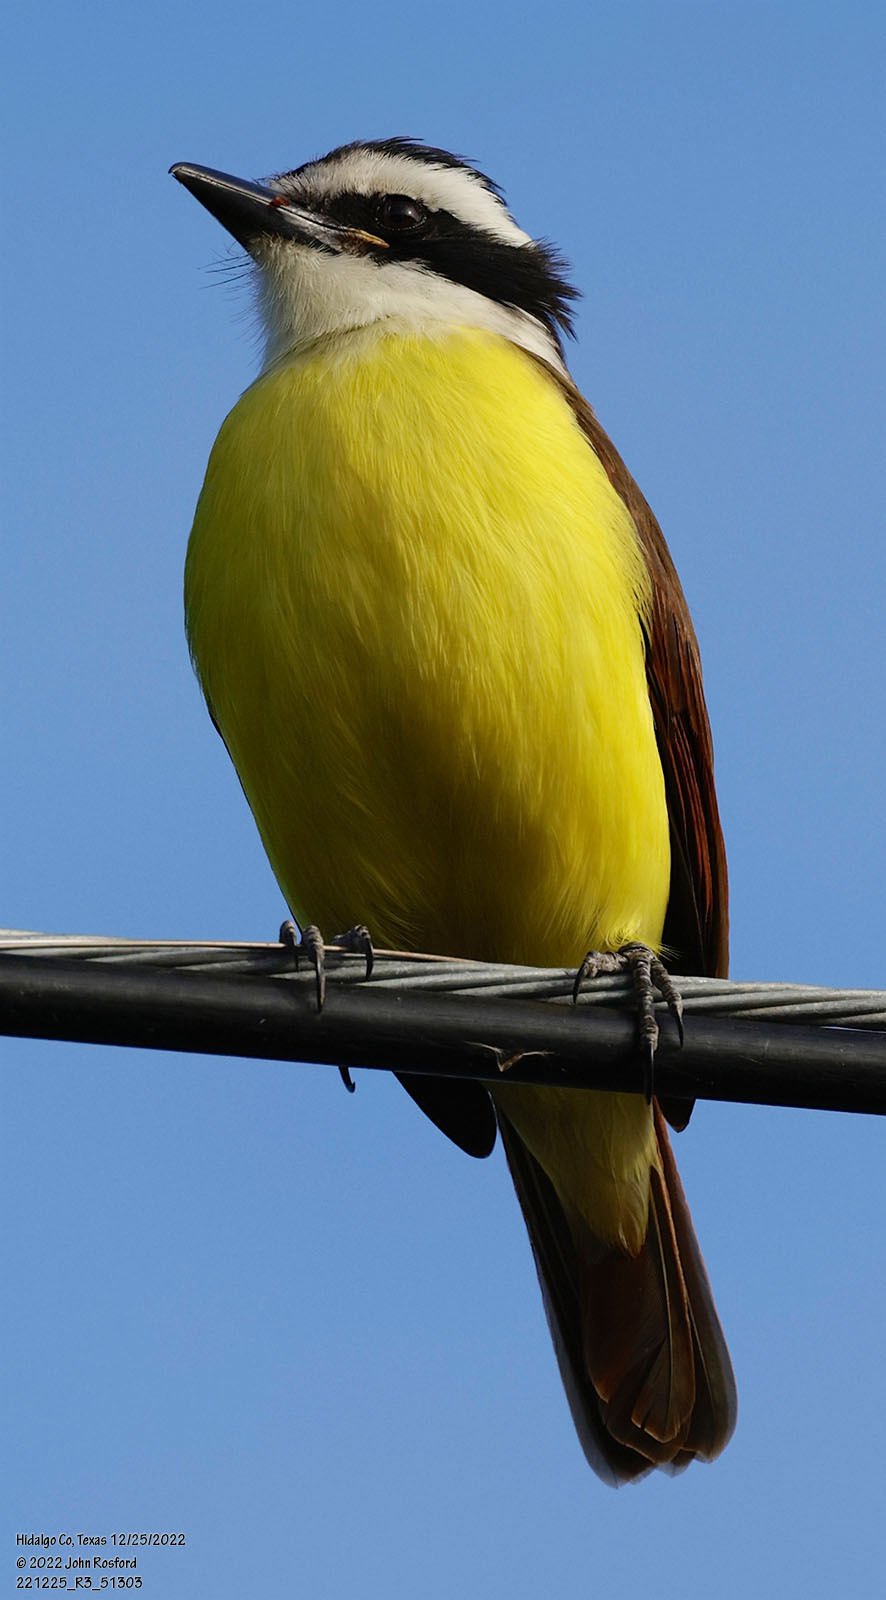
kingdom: Animalia
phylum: Chordata
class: Aves
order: Passeriformes
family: Tyrannidae
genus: Pitangus
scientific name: Pitangus sulphuratus
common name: Great kiskadee
